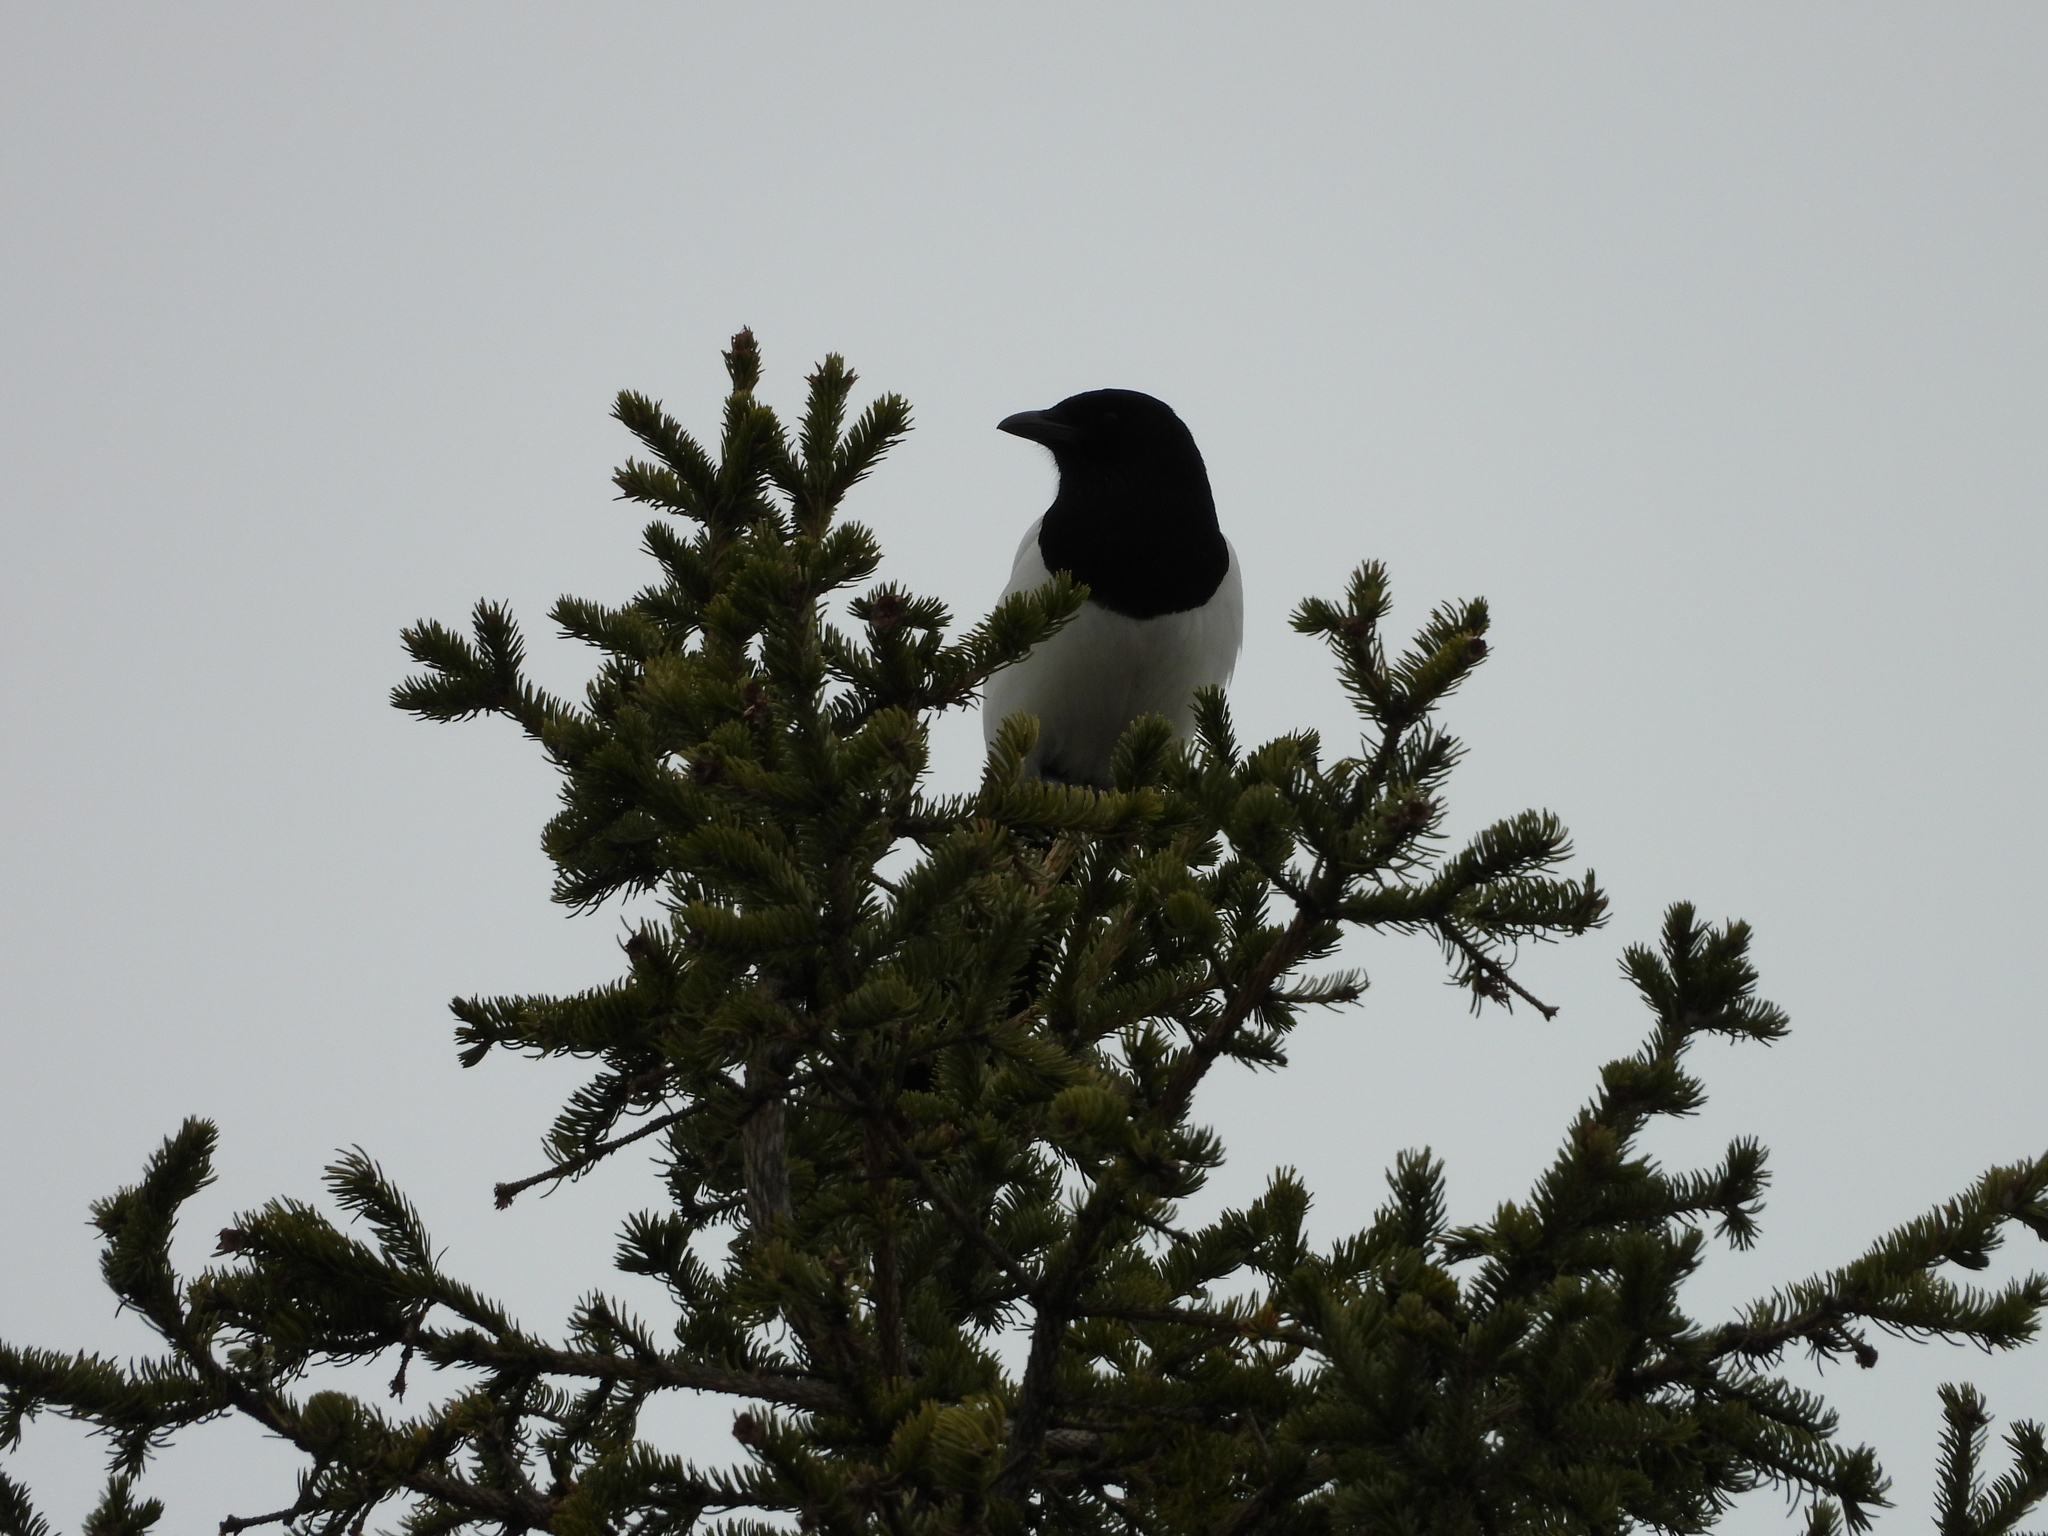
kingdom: Animalia
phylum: Chordata
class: Aves
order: Passeriformes
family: Corvidae
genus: Pica
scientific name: Pica pica
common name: Eurasian magpie
